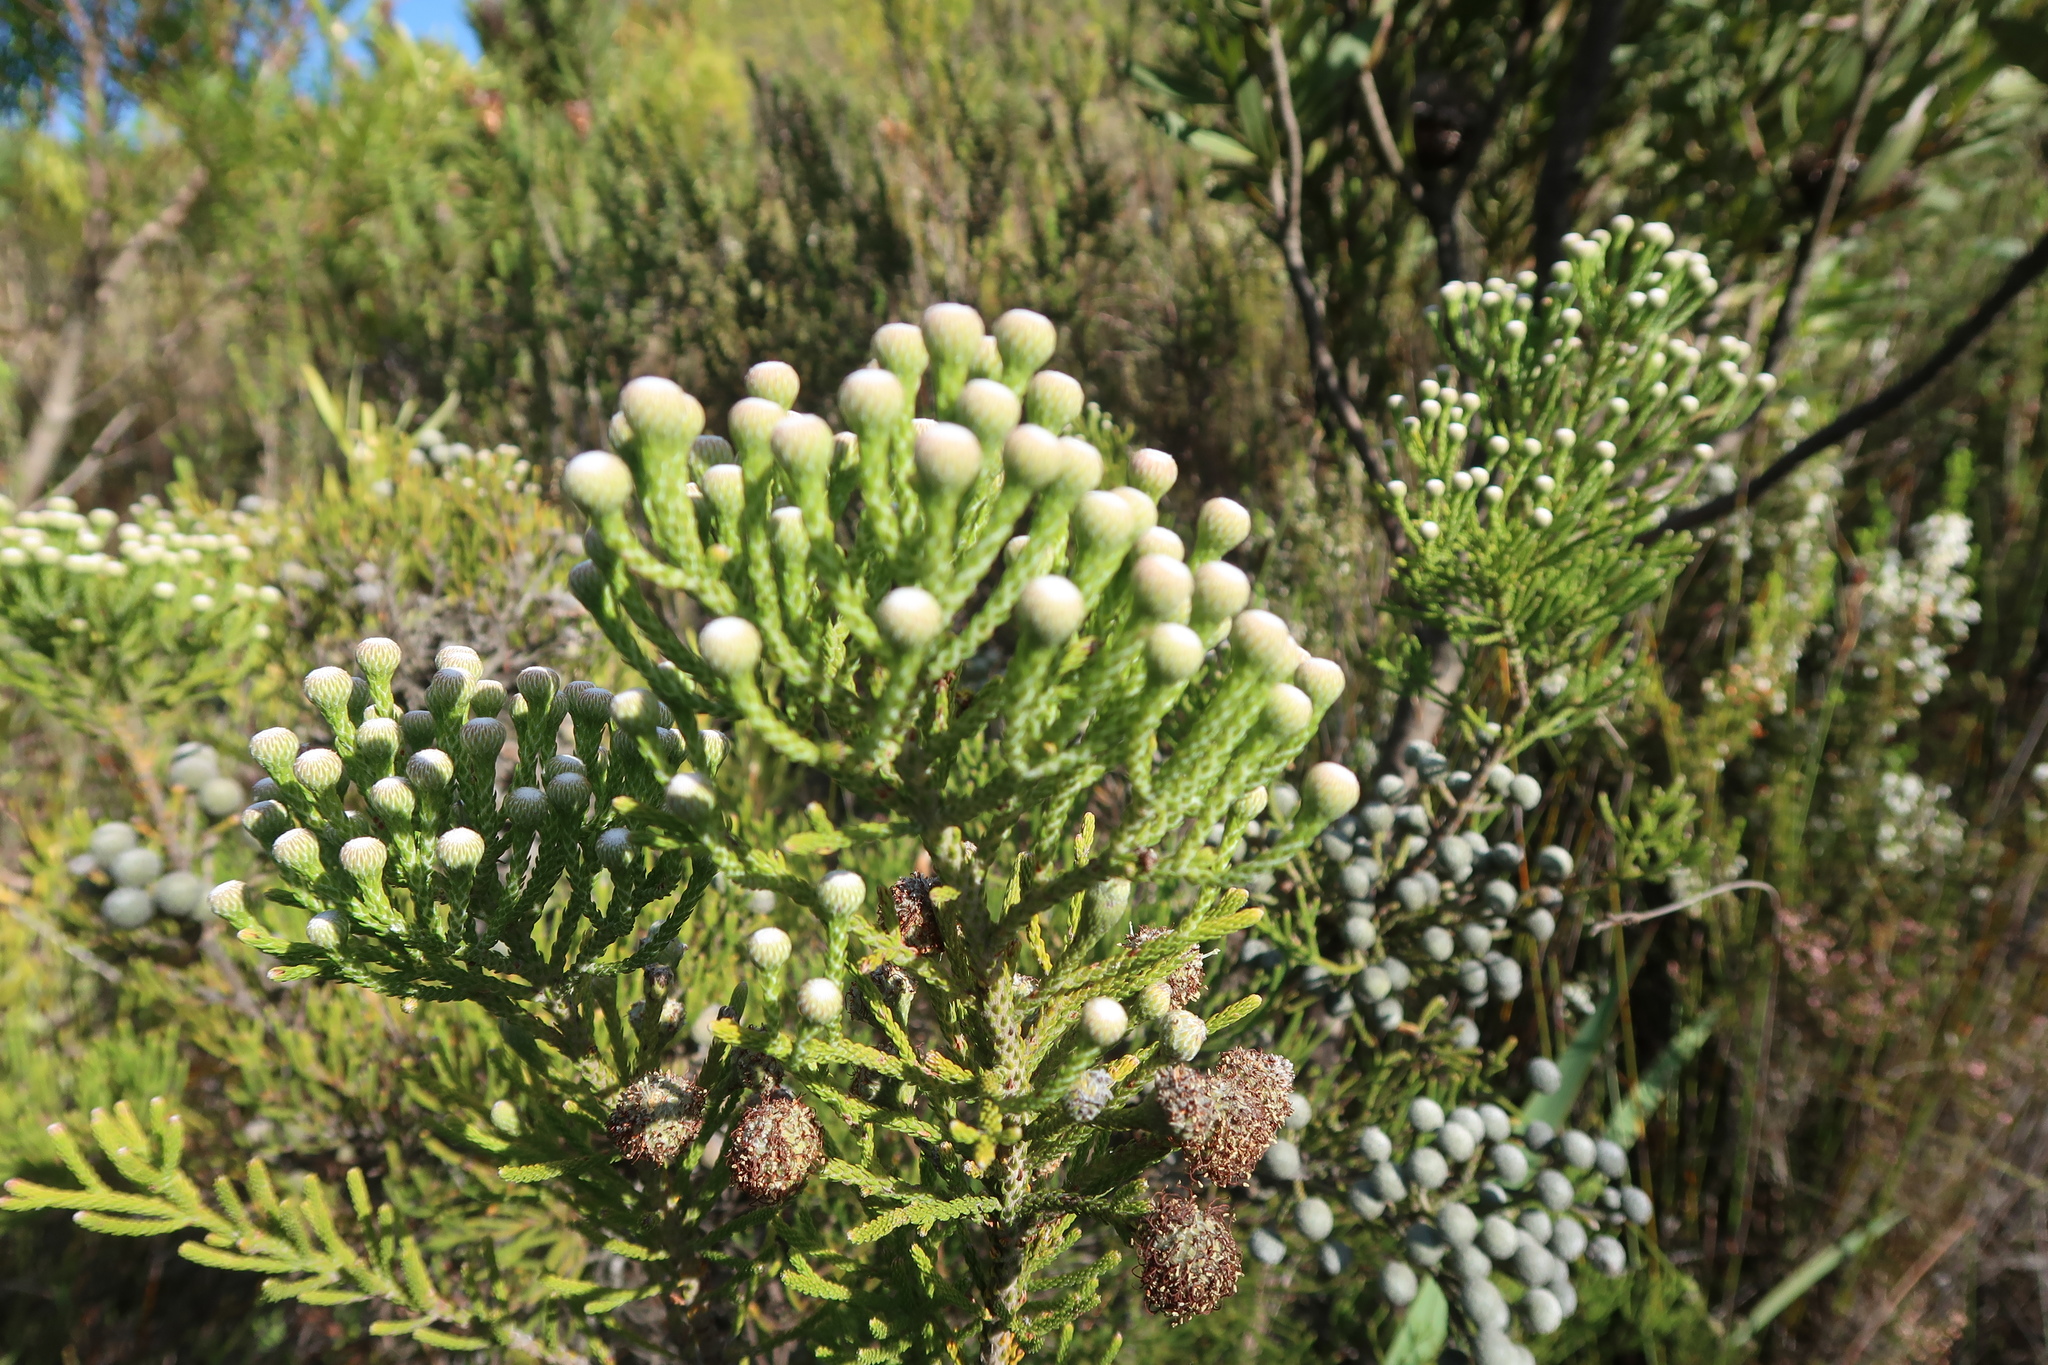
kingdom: Plantae
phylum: Tracheophyta
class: Magnoliopsida
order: Bruniales
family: Bruniaceae
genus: Brunia
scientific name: Brunia noduliflora
